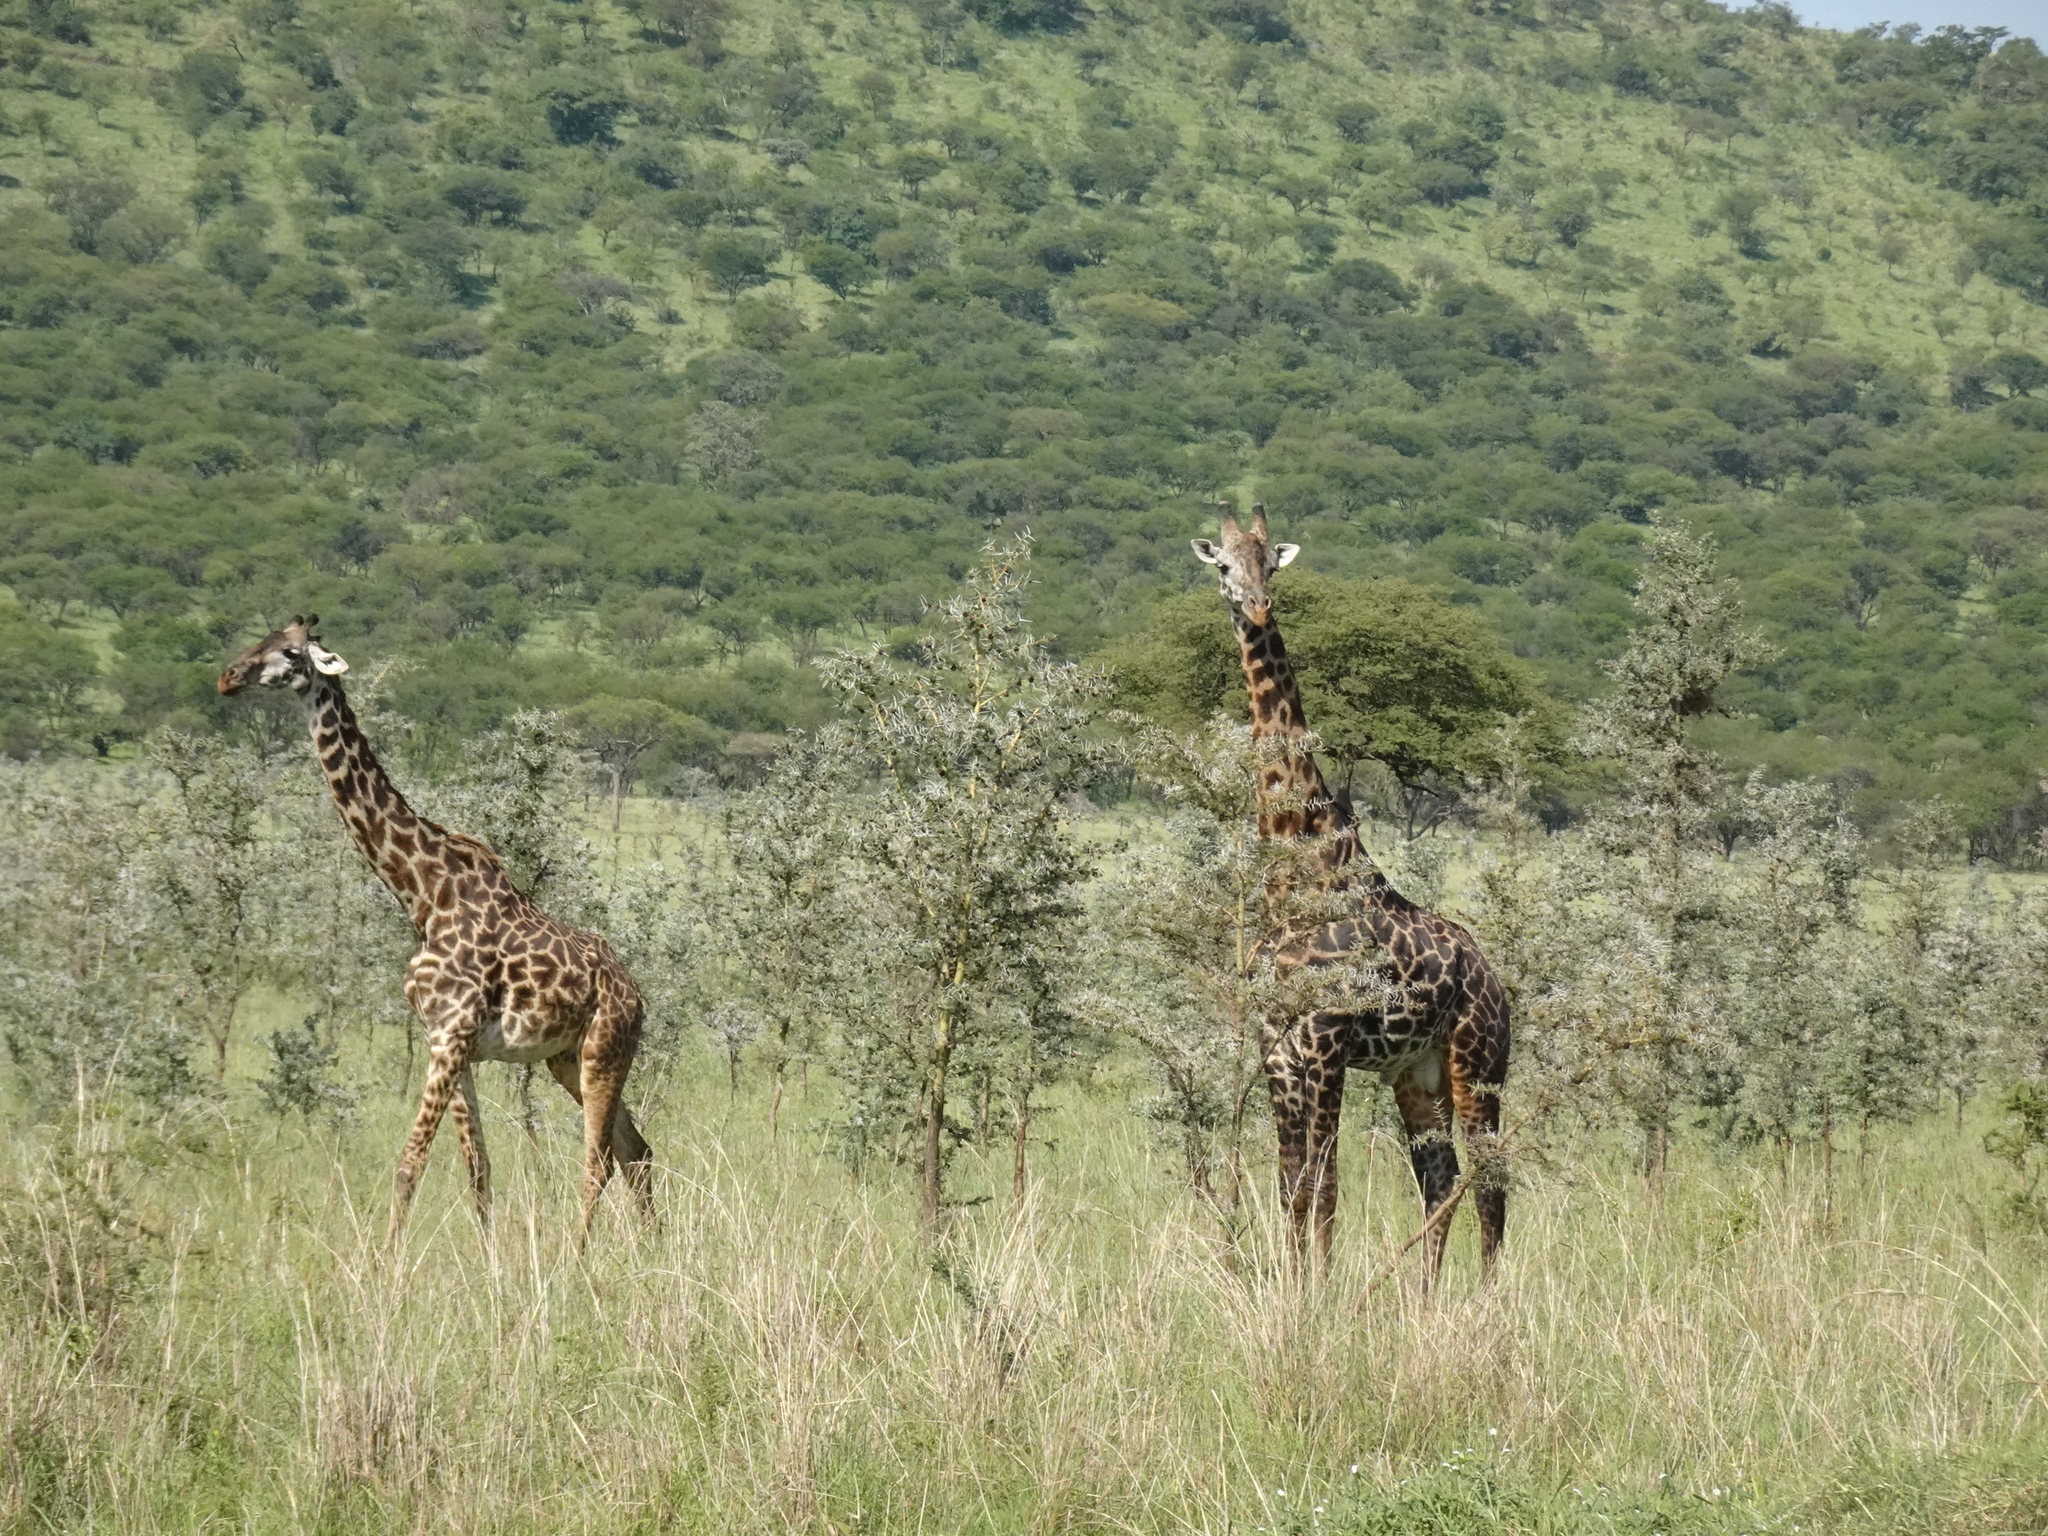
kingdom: Animalia
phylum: Chordata
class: Mammalia
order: Artiodactyla
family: Giraffidae
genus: Giraffa
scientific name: Giraffa tippelskirchi
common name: Masai giraffe
